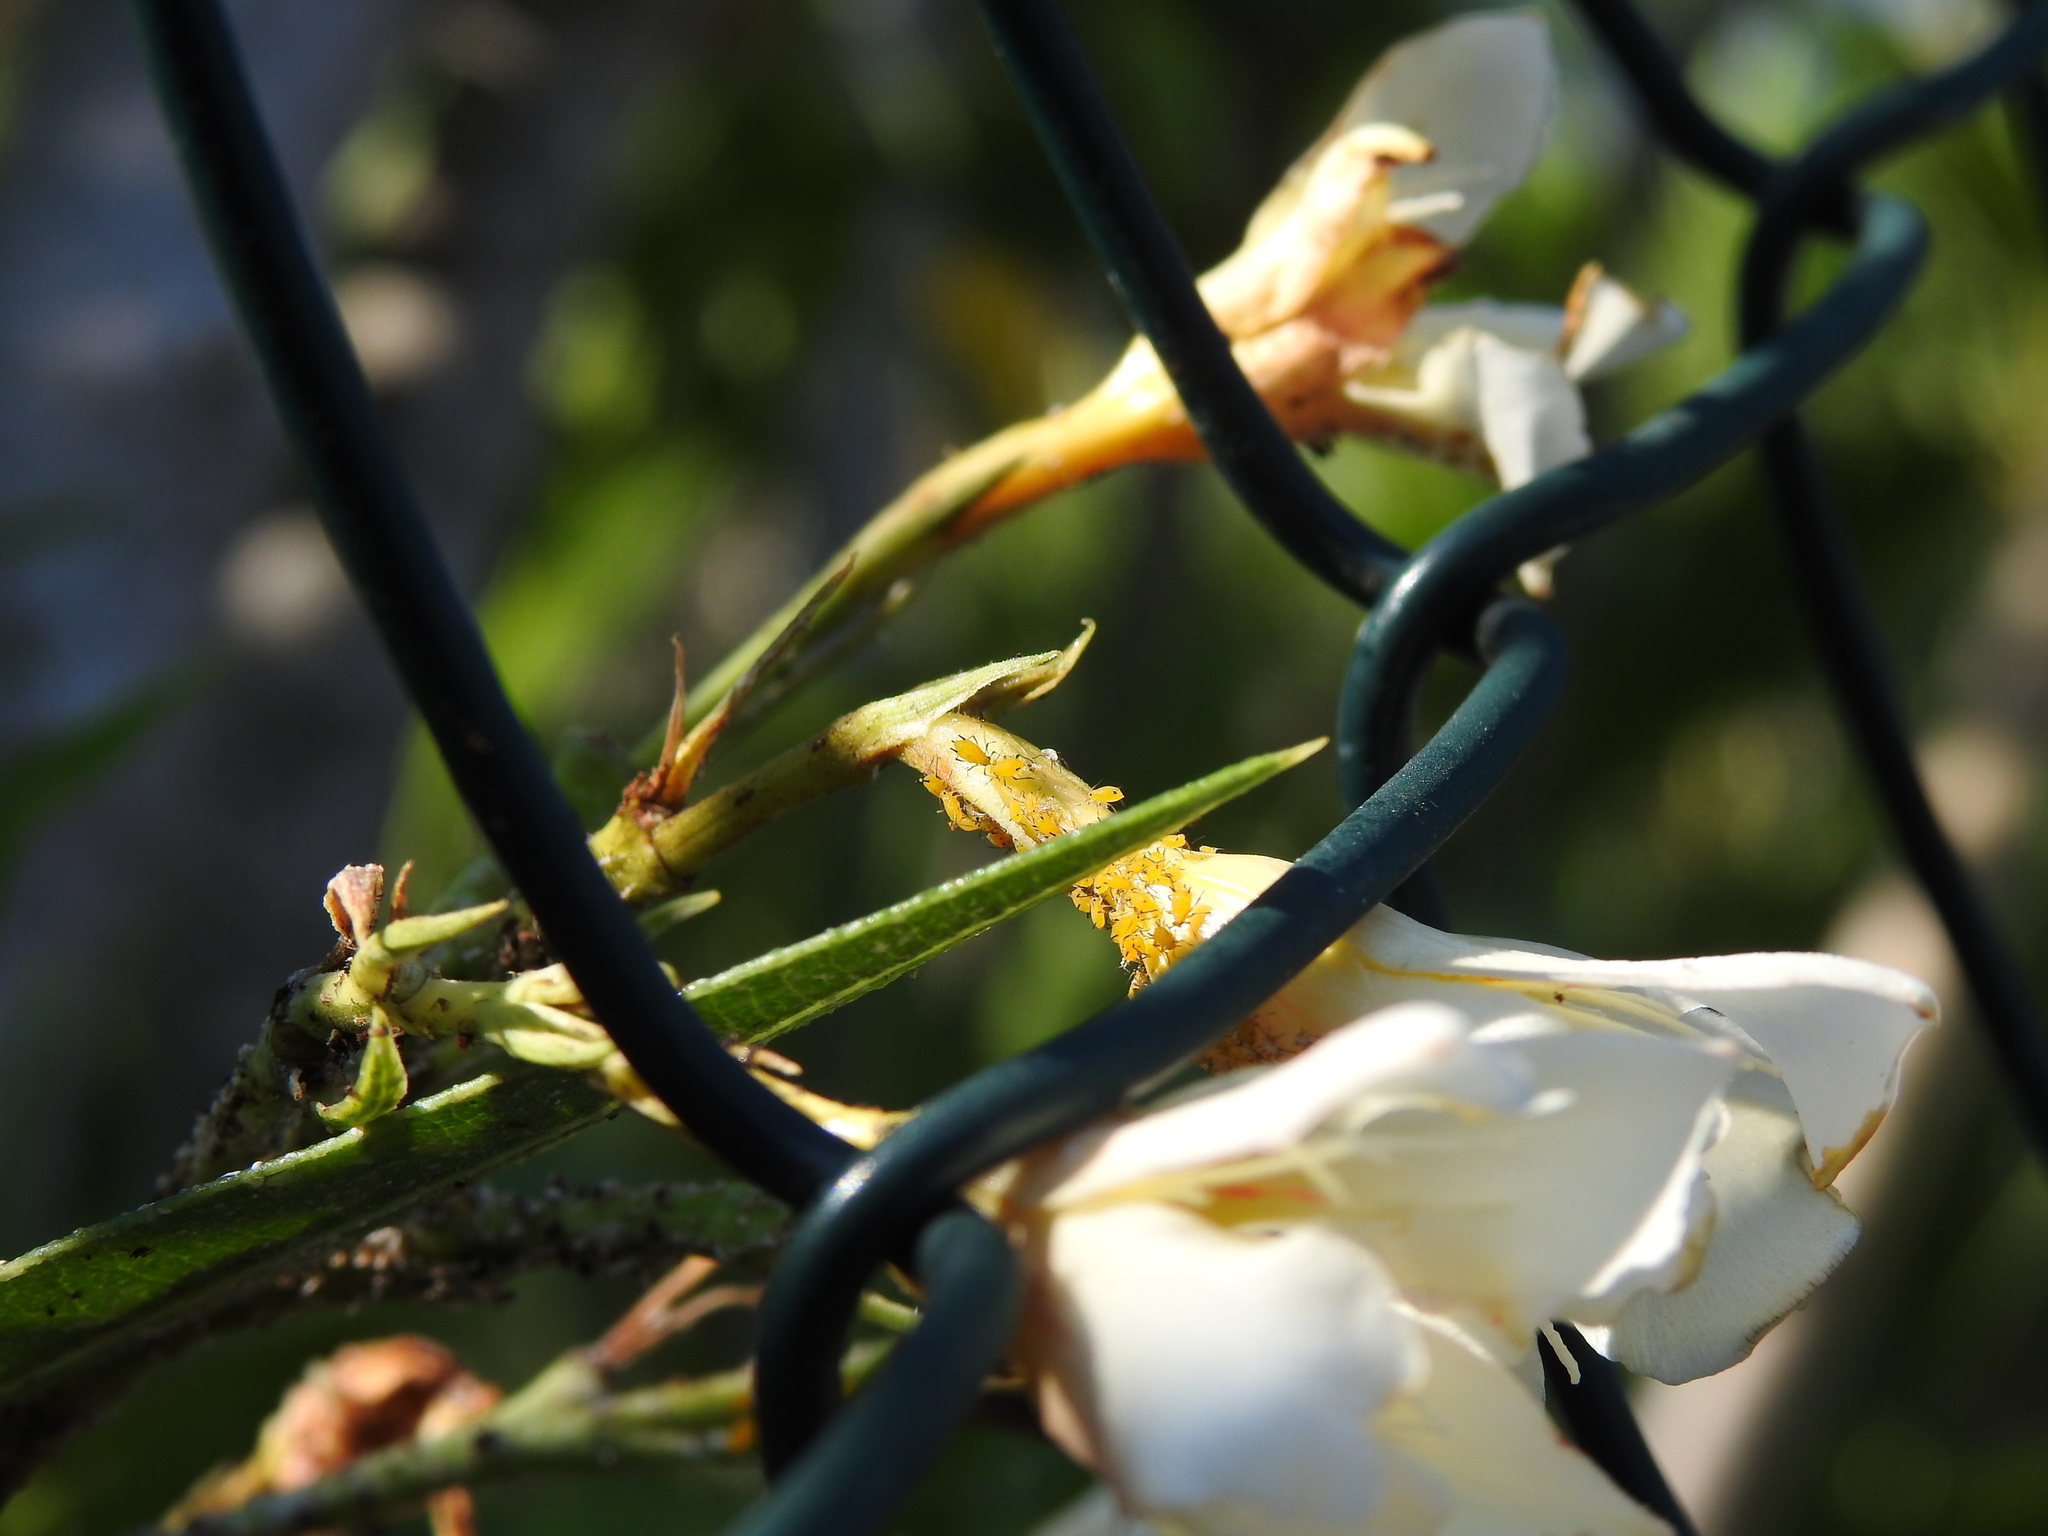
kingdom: Animalia
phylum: Arthropoda
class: Insecta
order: Hemiptera
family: Aphididae
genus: Aphis
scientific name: Aphis nerii
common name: Oleander aphid
